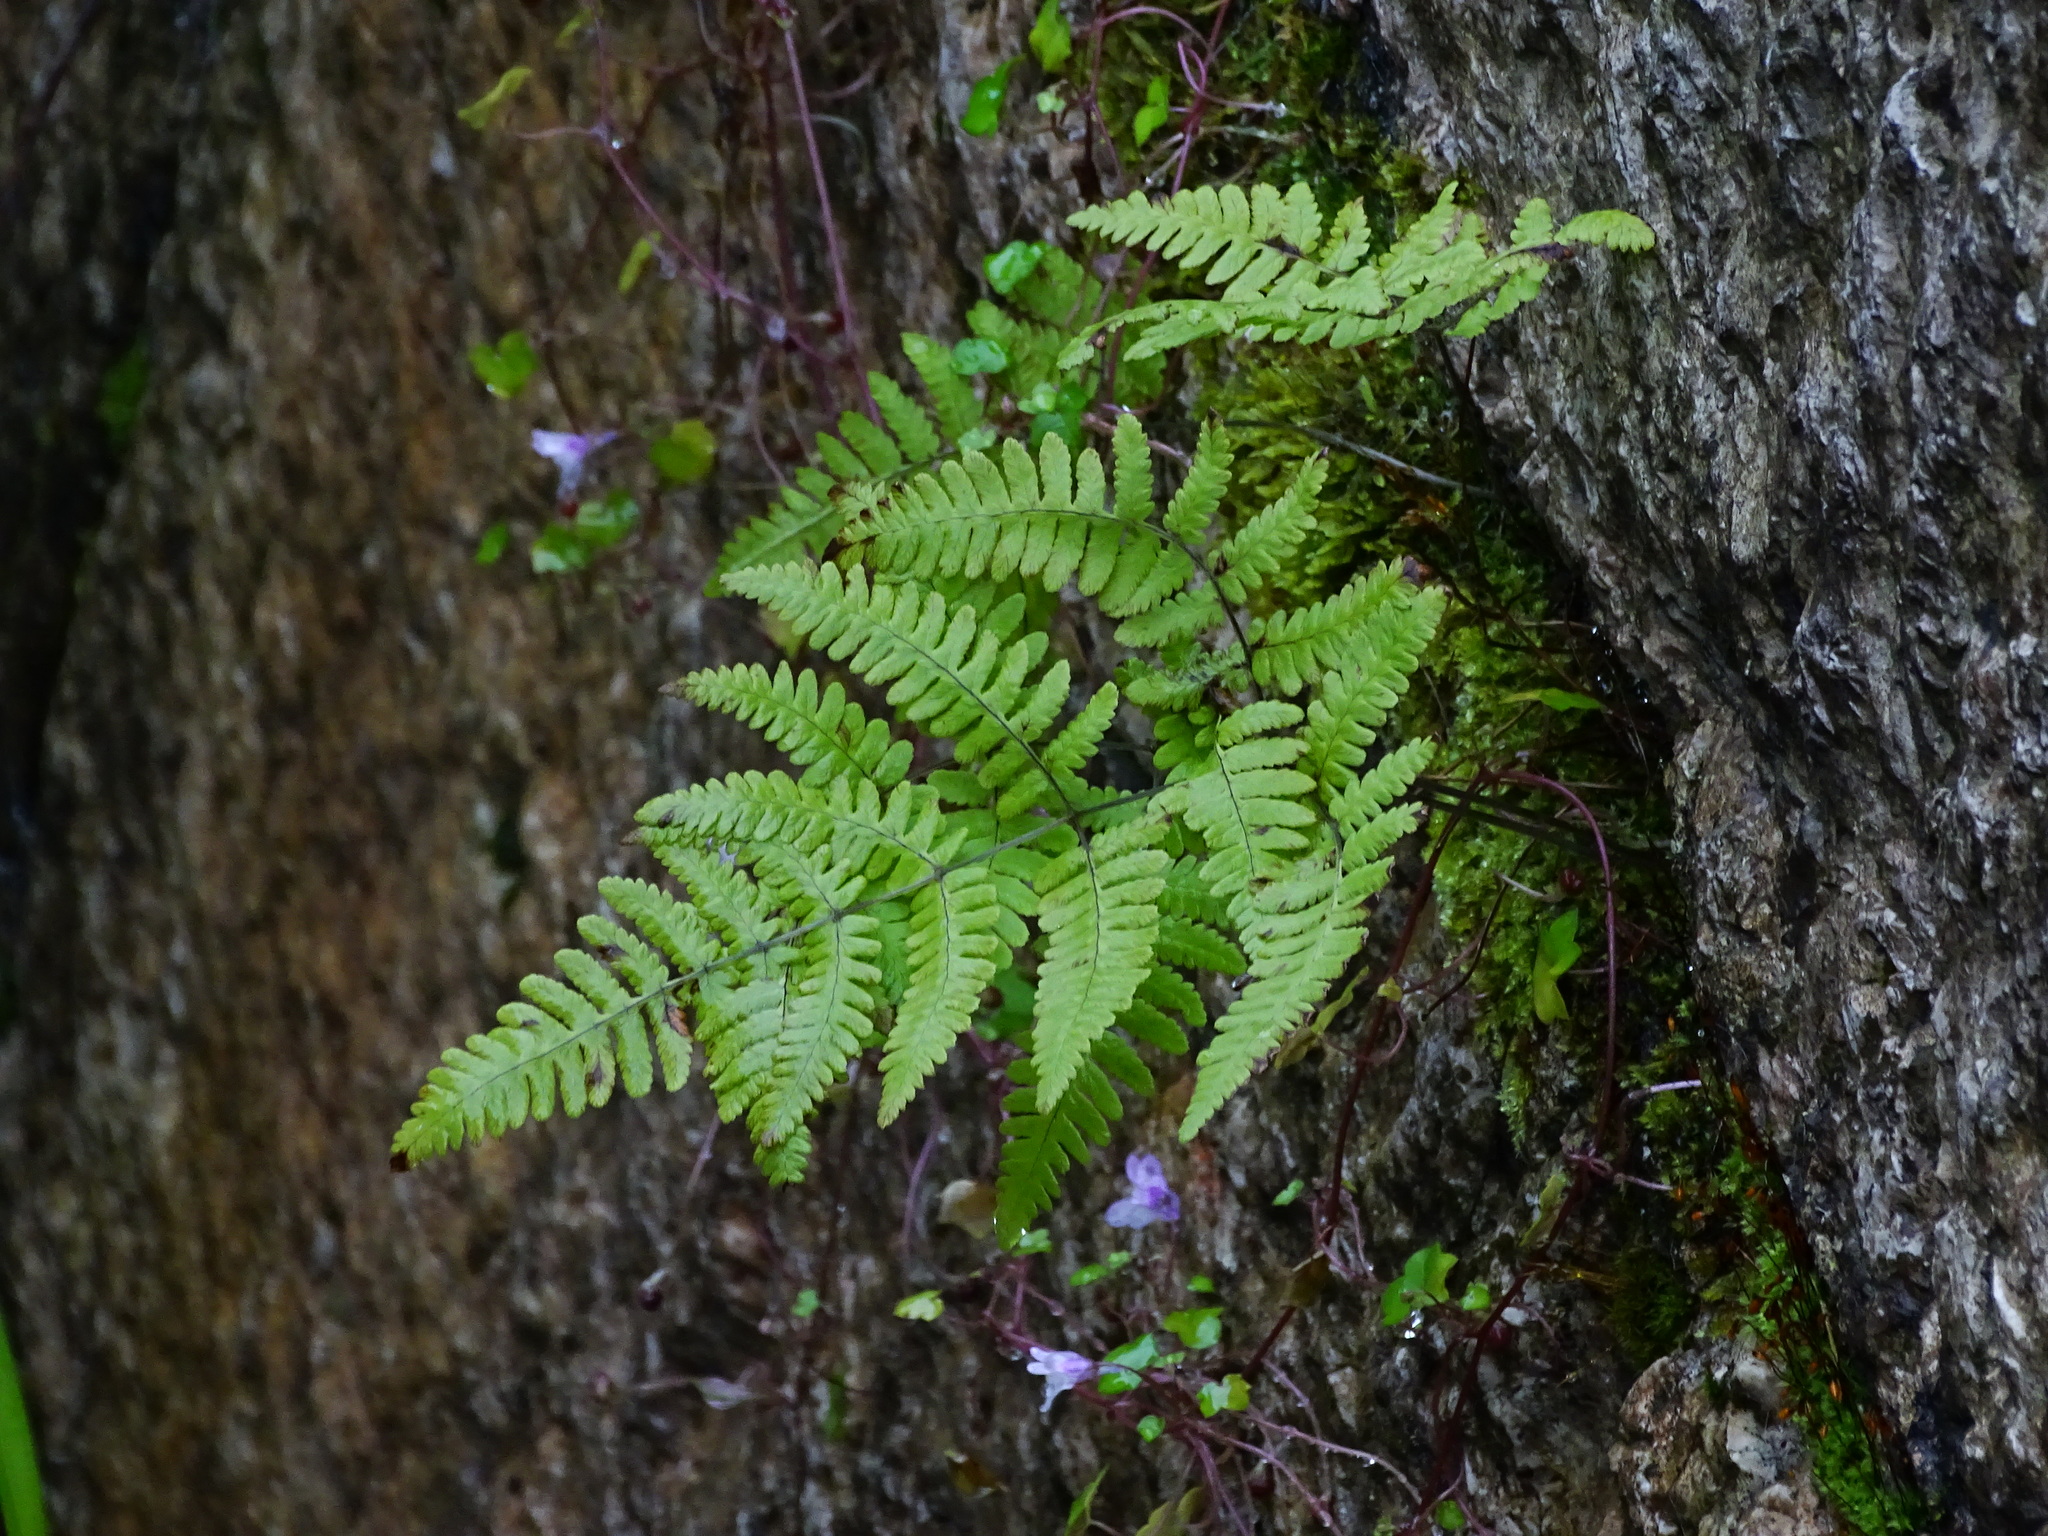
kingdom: Plantae
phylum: Tracheophyta
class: Polypodiopsida
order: Polypodiales
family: Cystopteridaceae
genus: Gymnocarpium
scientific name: Gymnocarpium robertianum
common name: Limestone fern
